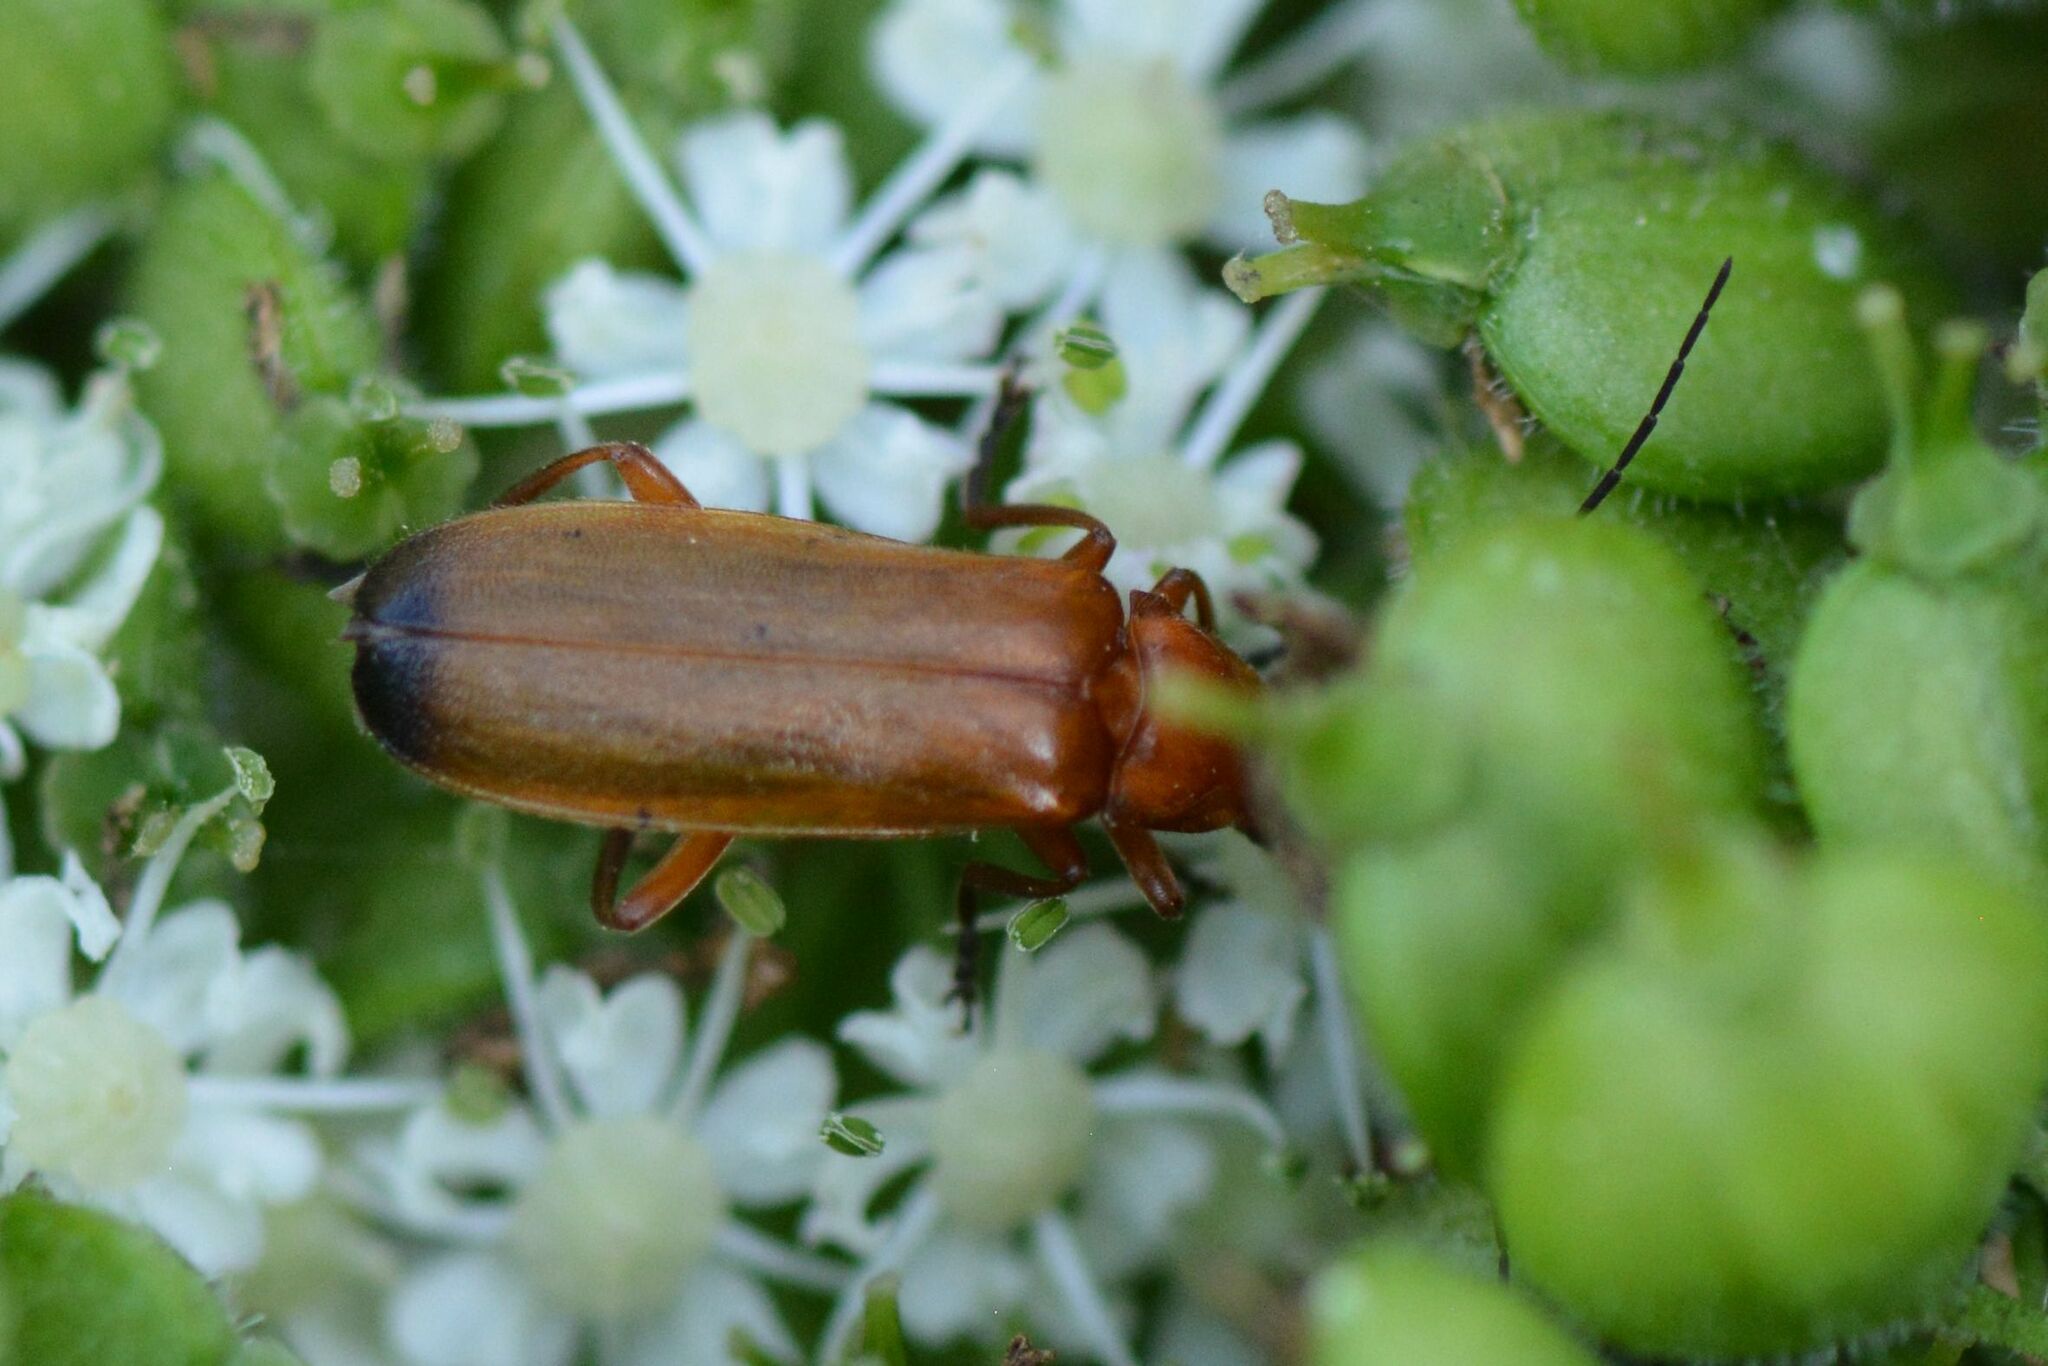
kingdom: Animalia
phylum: Arthropoda
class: Insecta
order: Coleoptera
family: Cantharidae
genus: Rhagonycha
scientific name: Rhagonycha fulva
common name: Common red soldier beetle
